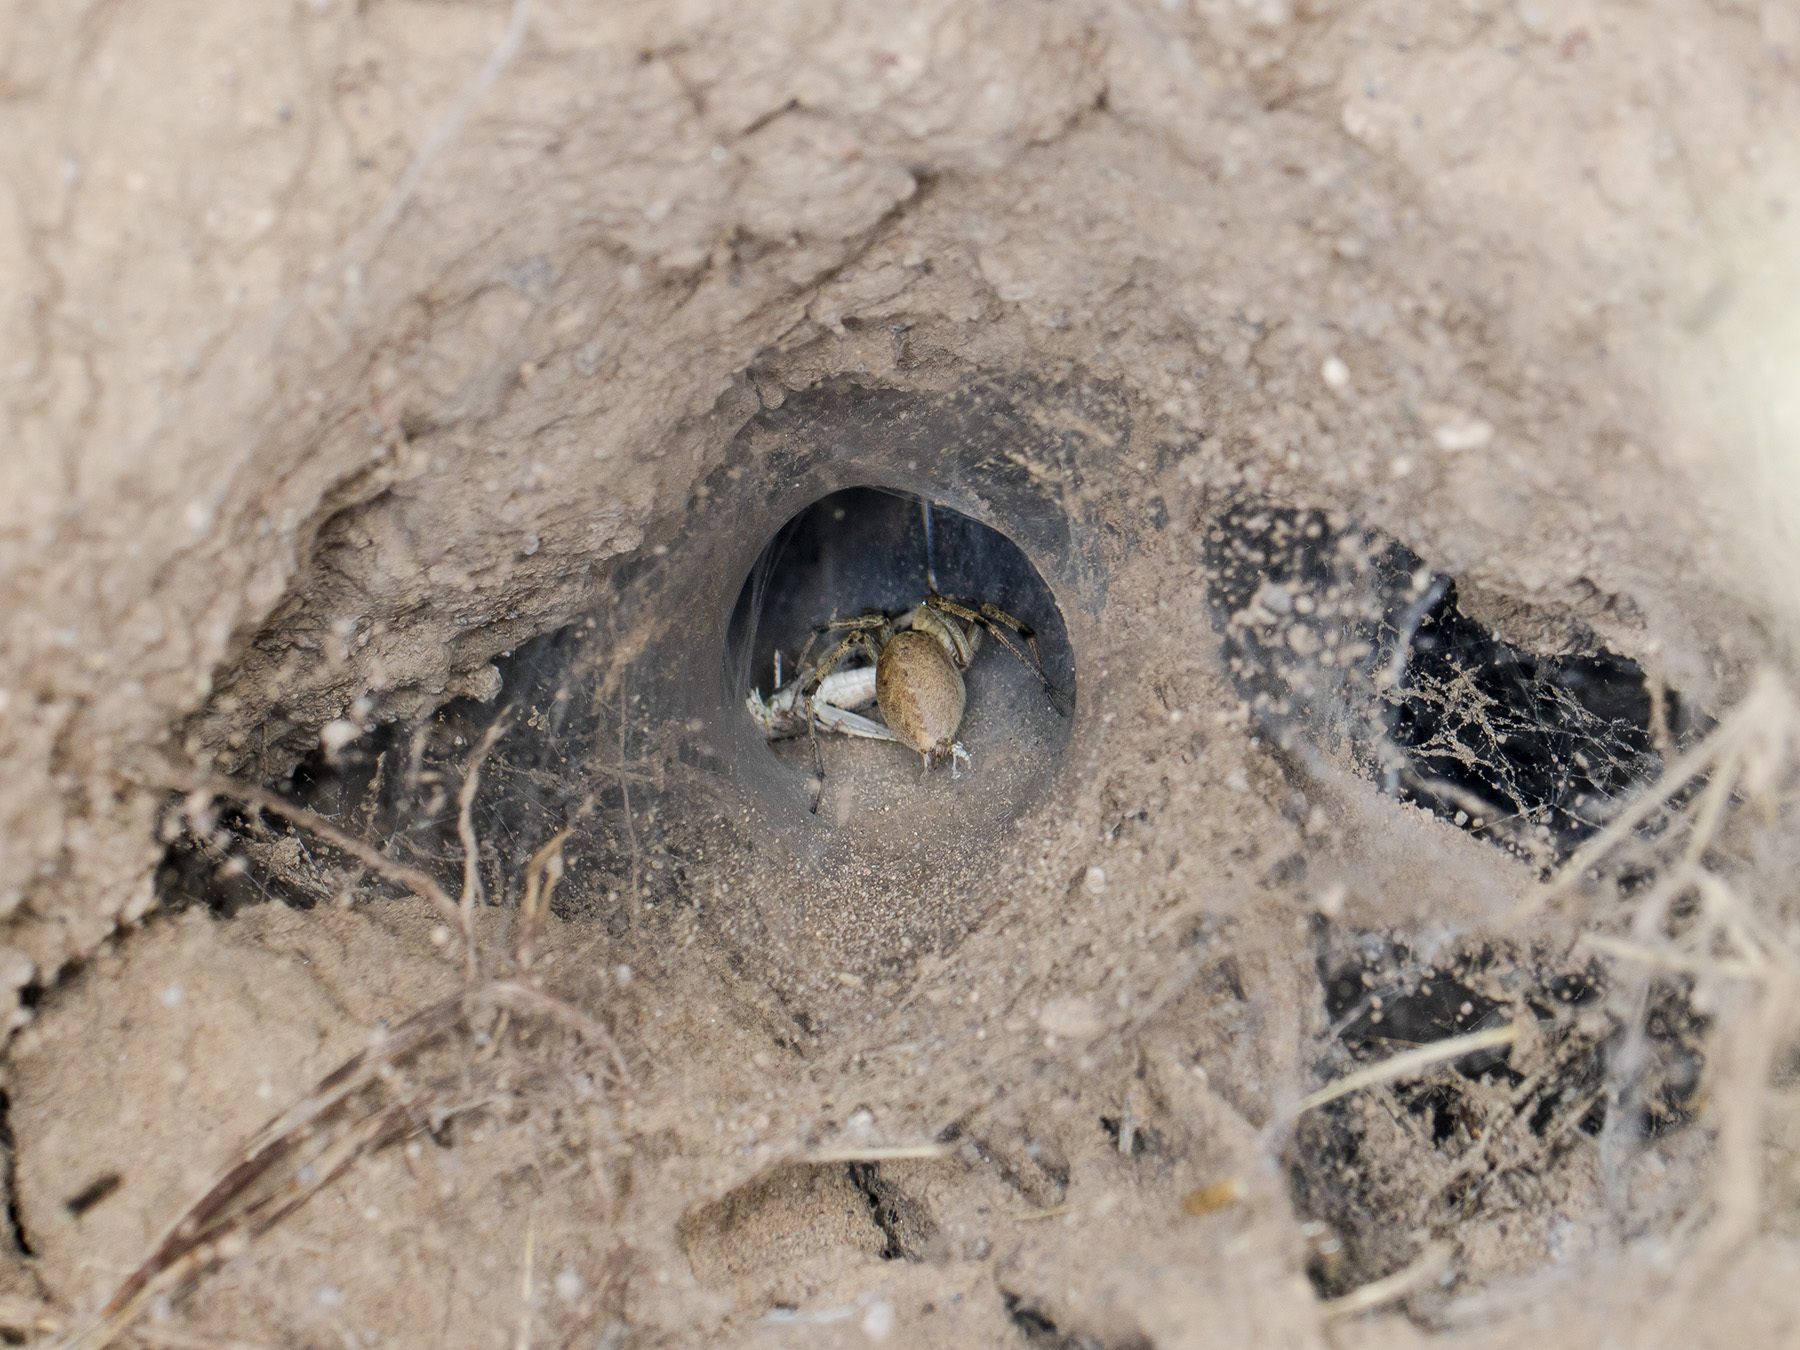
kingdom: Animalia
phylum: Arthropoda
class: Arachnida
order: Araneae
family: Agelenidae
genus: Agelena
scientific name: Agelena orientalis
